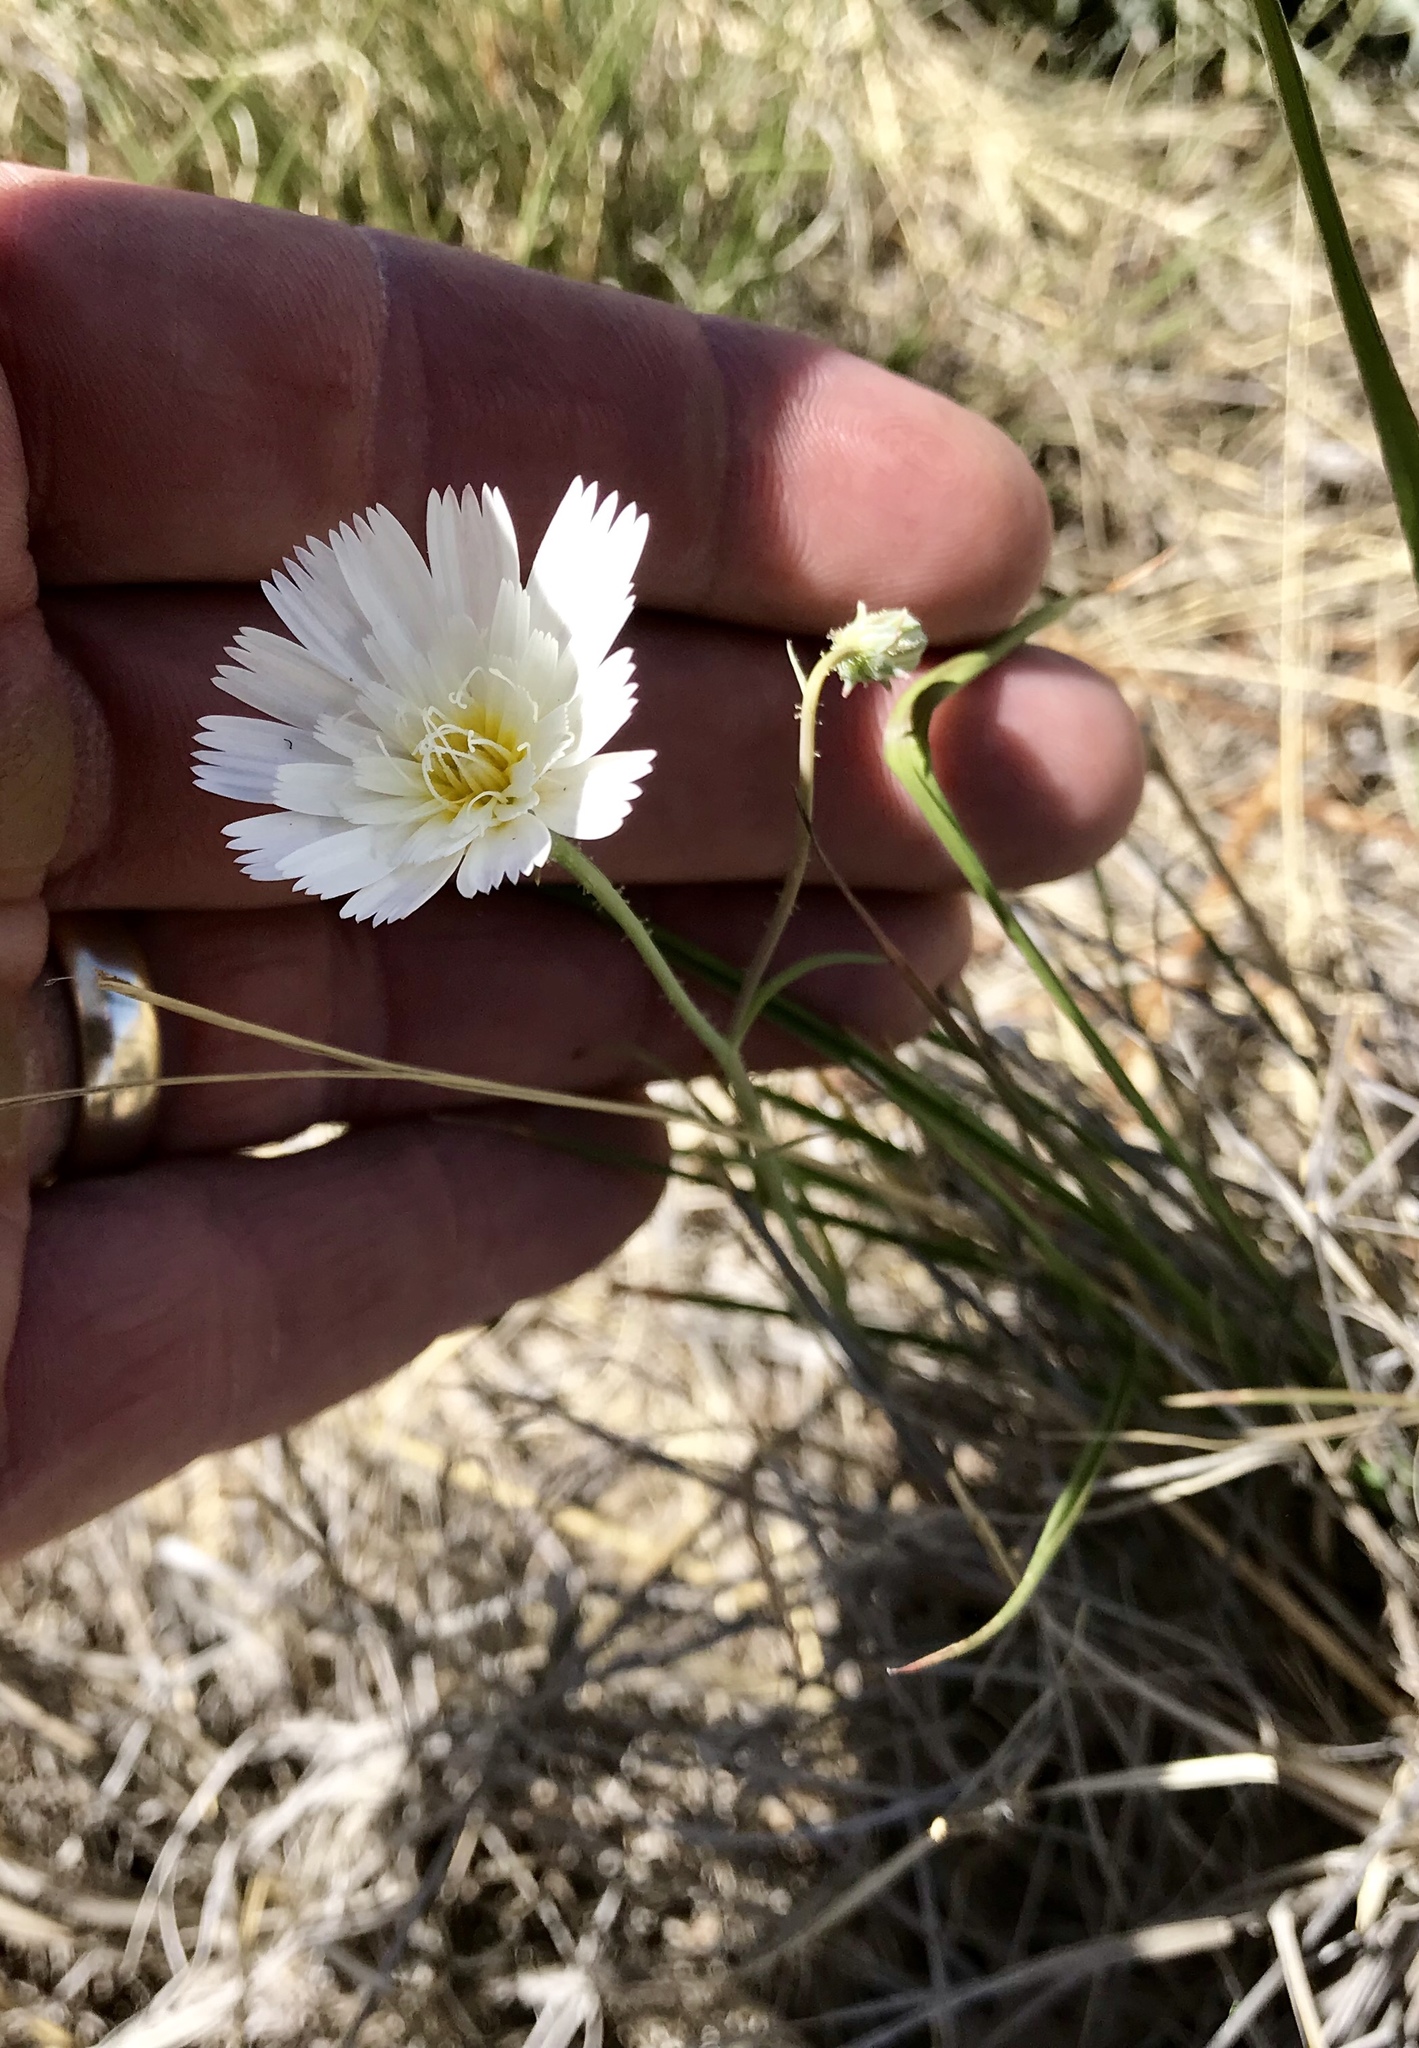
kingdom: Plantae
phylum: Tracheophyta
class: Magnoliopsida
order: Asterales
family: Asteraceae
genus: Calycoseris
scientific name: Calycoseris wrightii
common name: White tackstem
